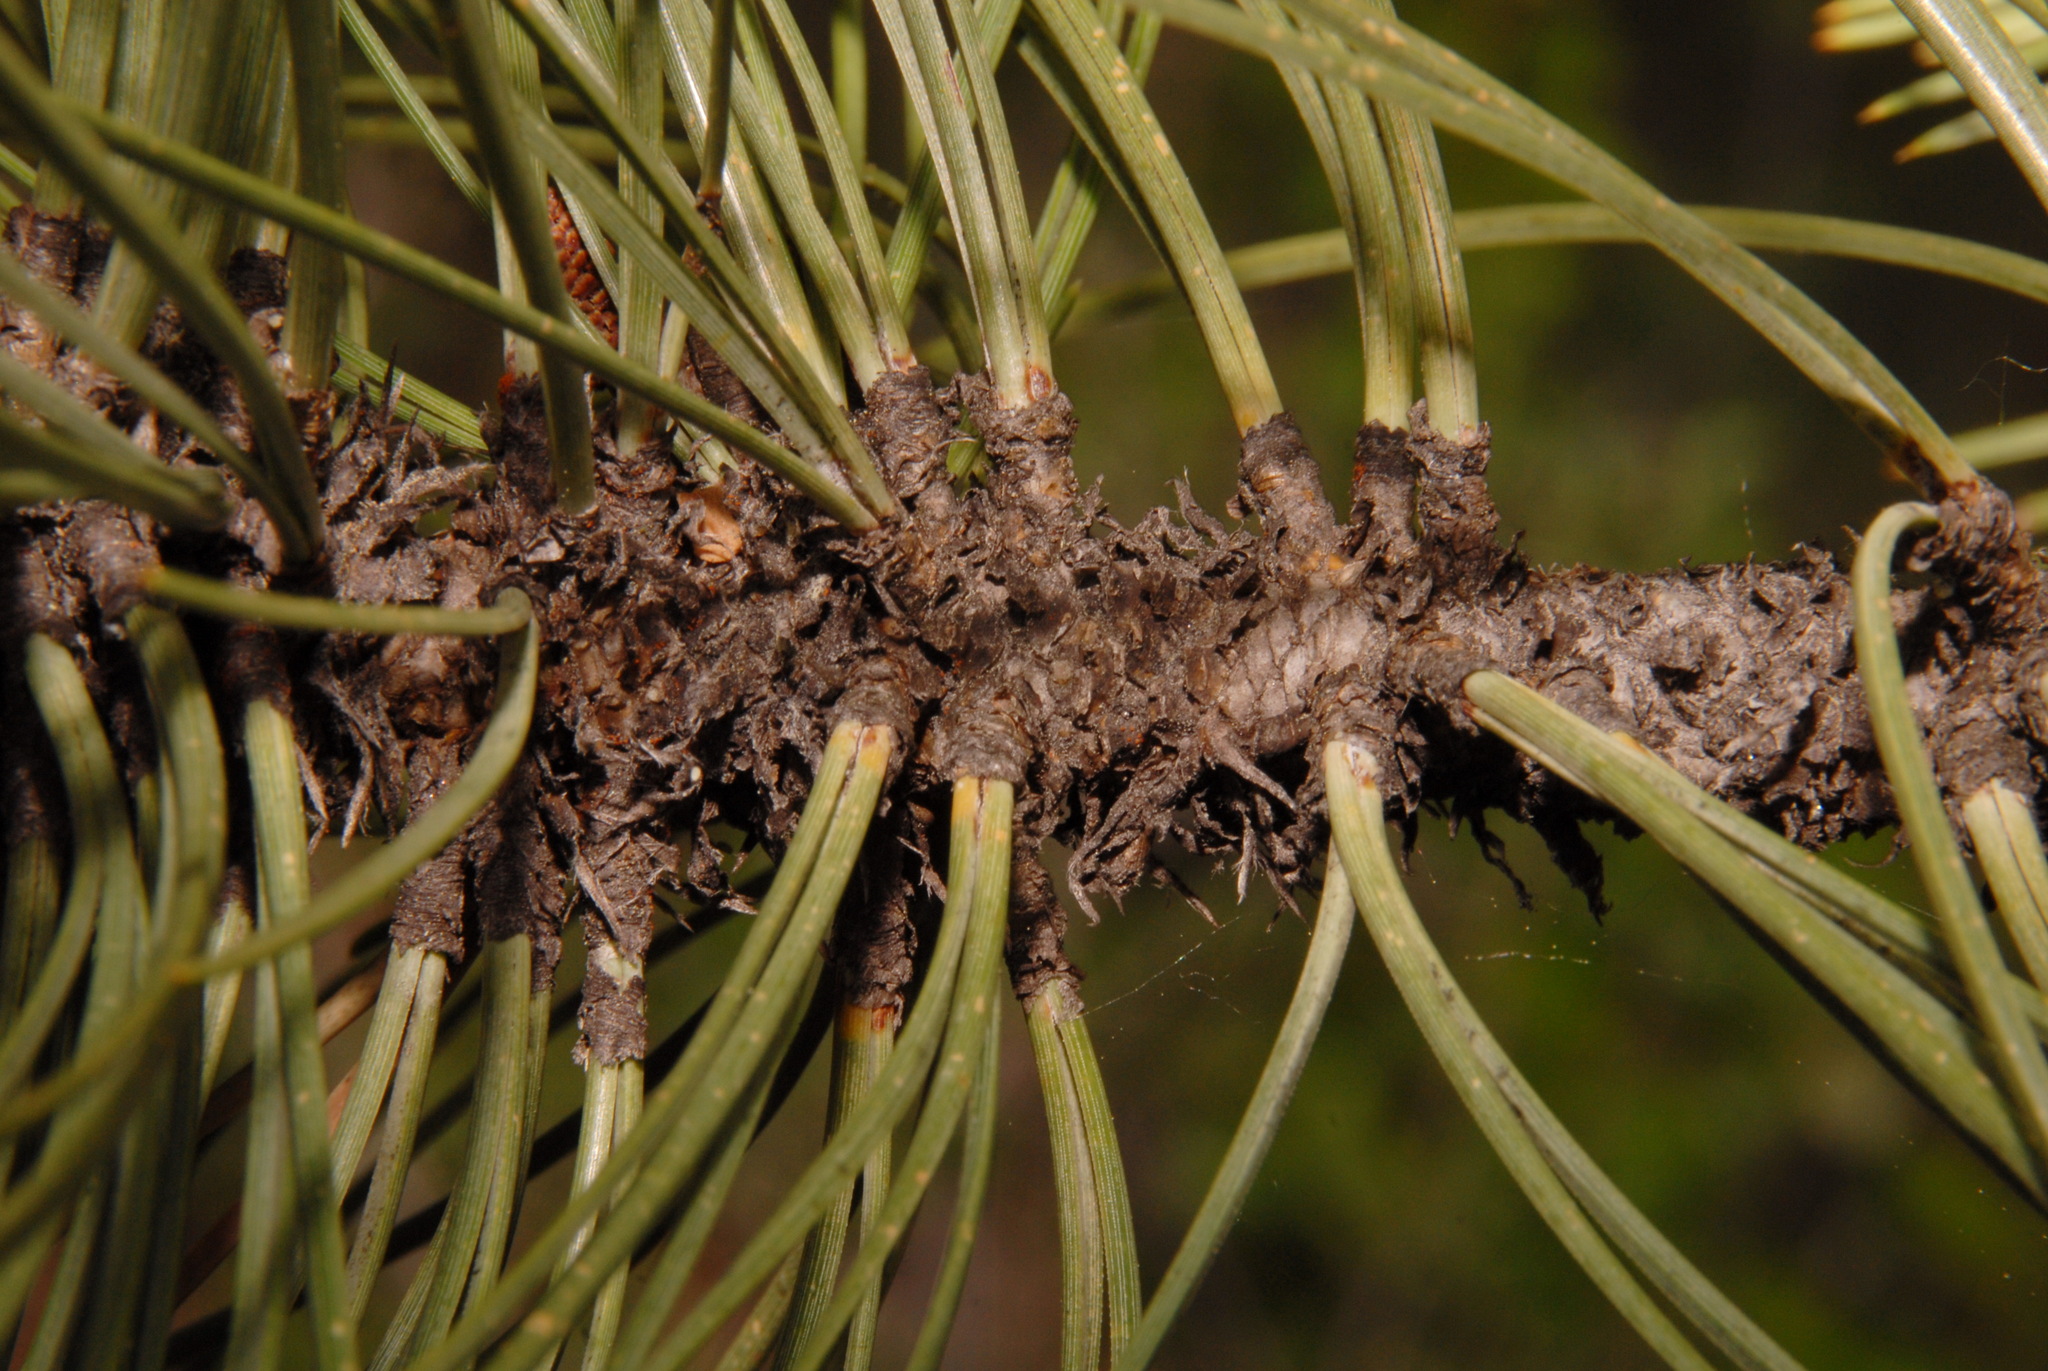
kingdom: Plantae
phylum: Tracheophyta
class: Pinopsida
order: Pinales
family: Pinaceae
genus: Pinus
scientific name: Pinus ponderosa
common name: Western yellow-pine
